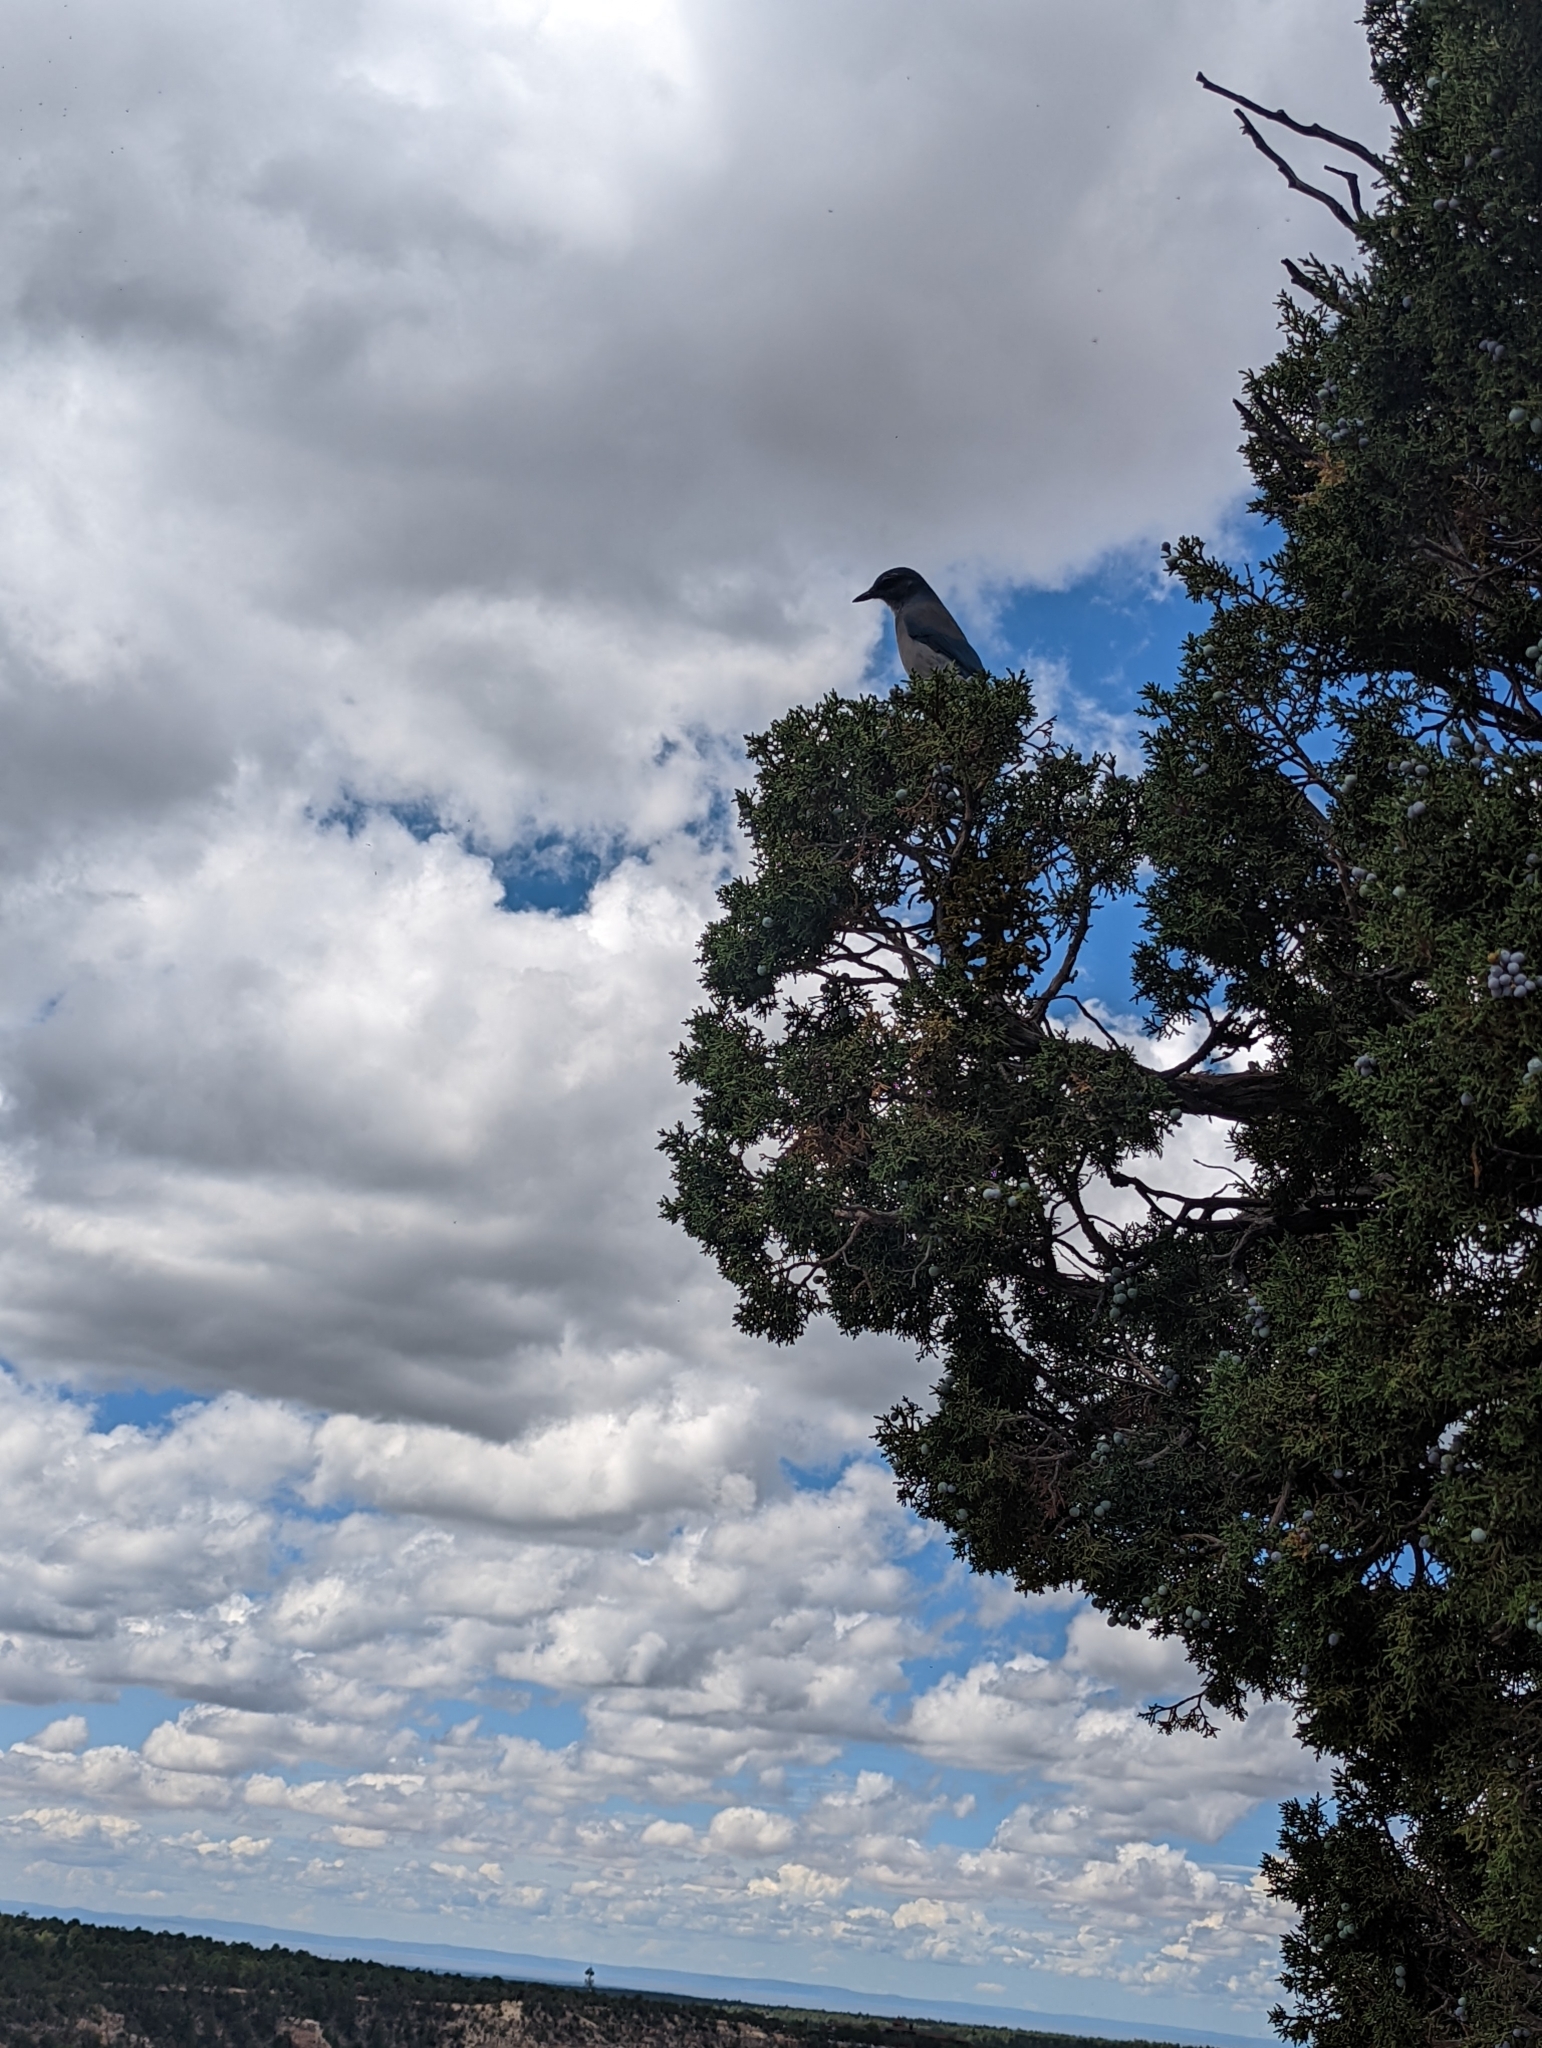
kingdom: Animalia
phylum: Chordata
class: Aves
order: Passeriformes
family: Corvidae
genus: Aphelocoma
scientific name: Aphelocoma woodhouseii
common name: Woodhouse's scrub-jay
